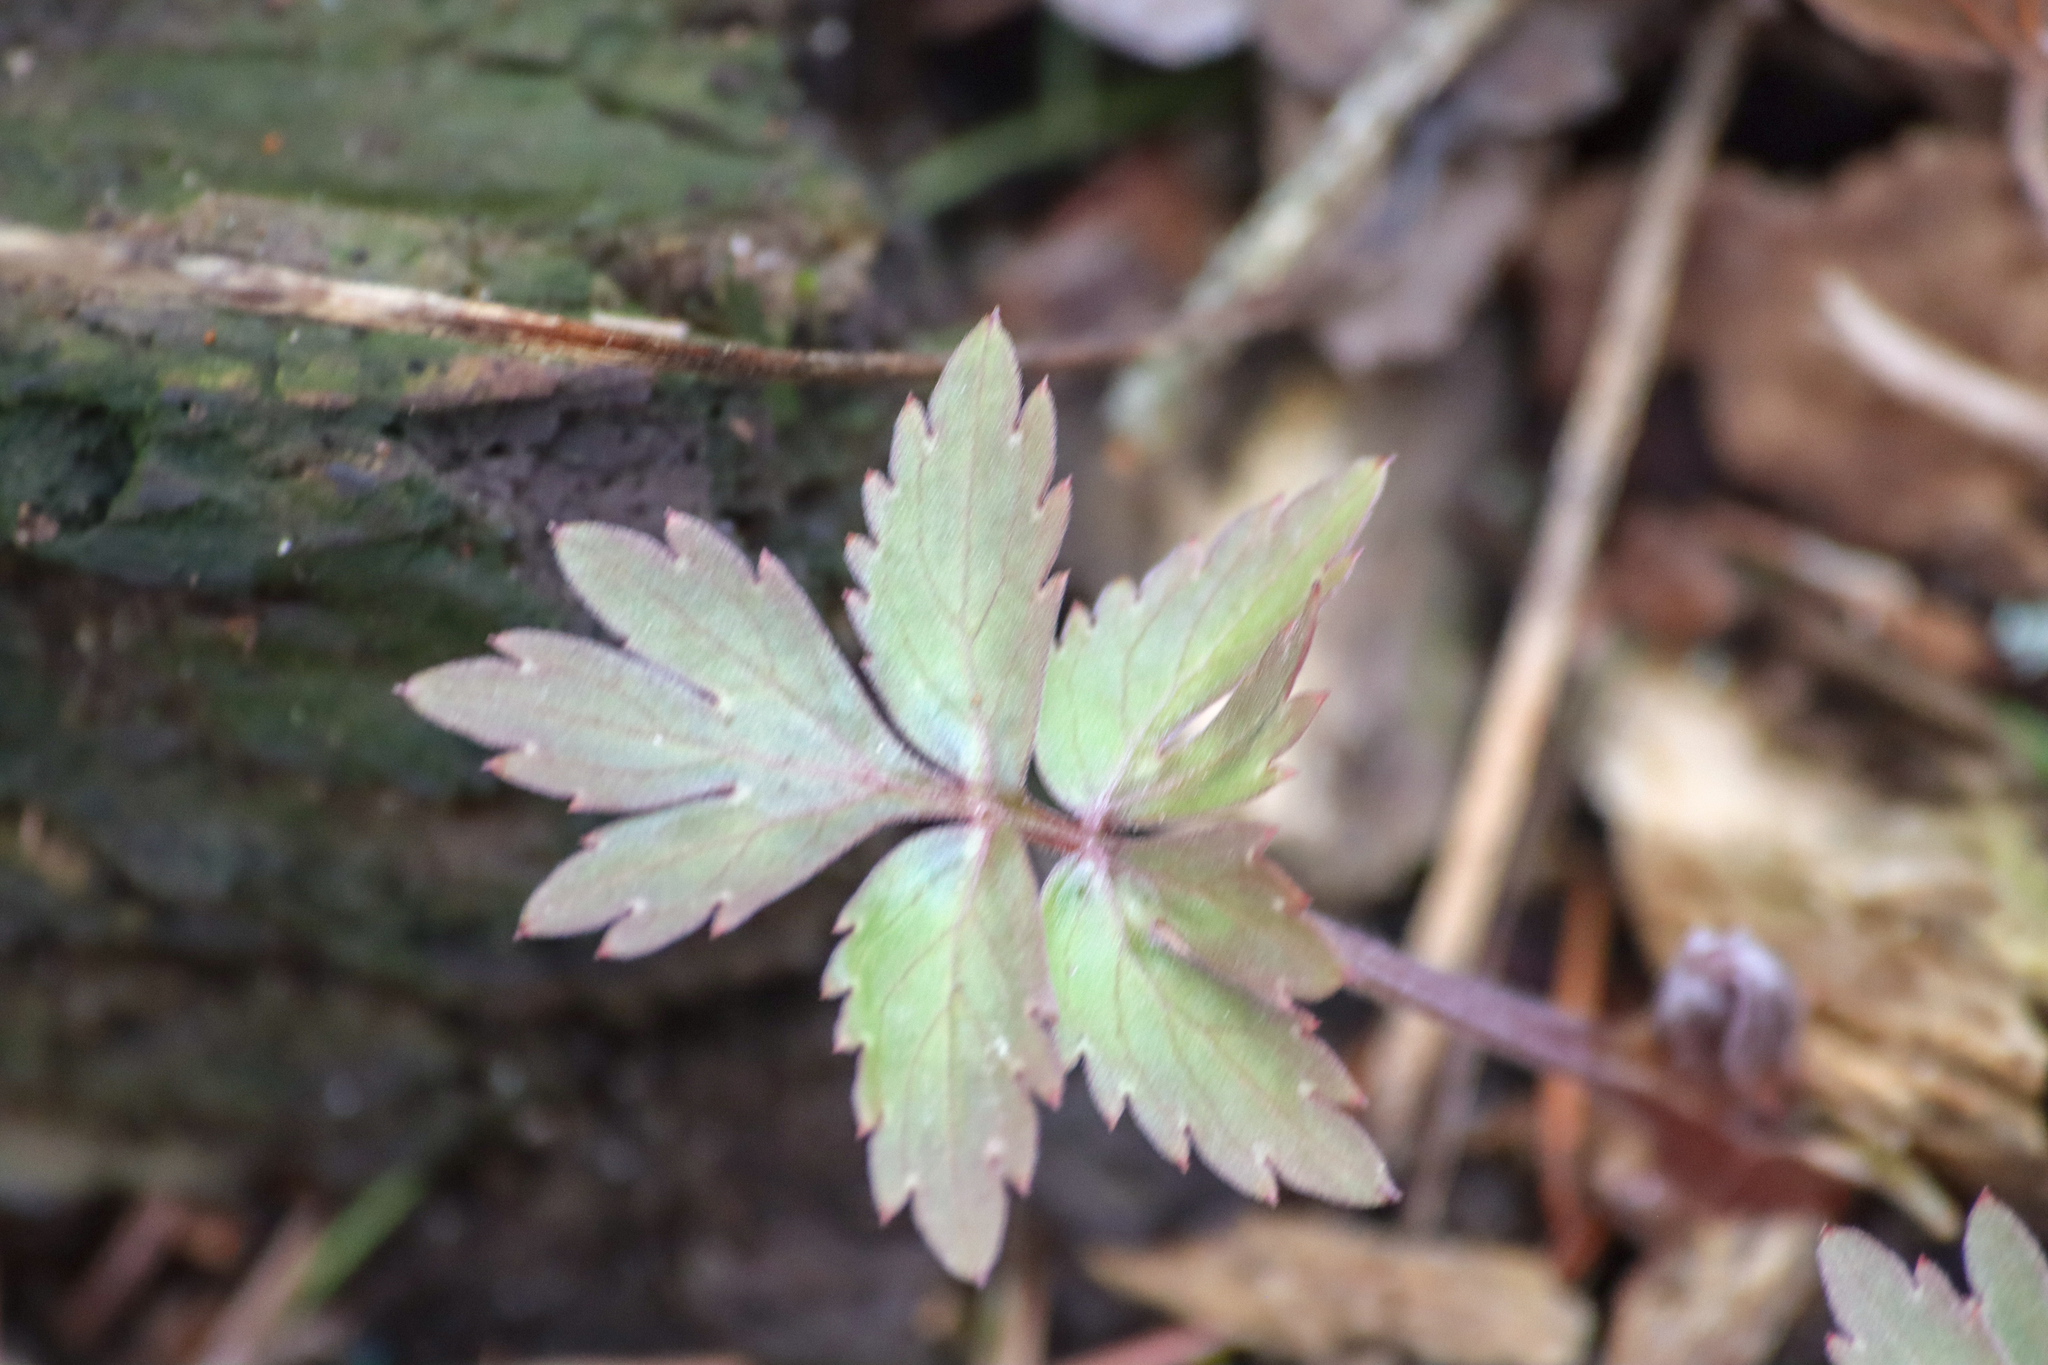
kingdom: Plantae
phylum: Tracheophyta
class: Magnoliopsida
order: Boraginales
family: Hydrophyllaceae
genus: Hydrophyllum
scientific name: Hydrophyllum virginianum
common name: Virginia waterleaf
